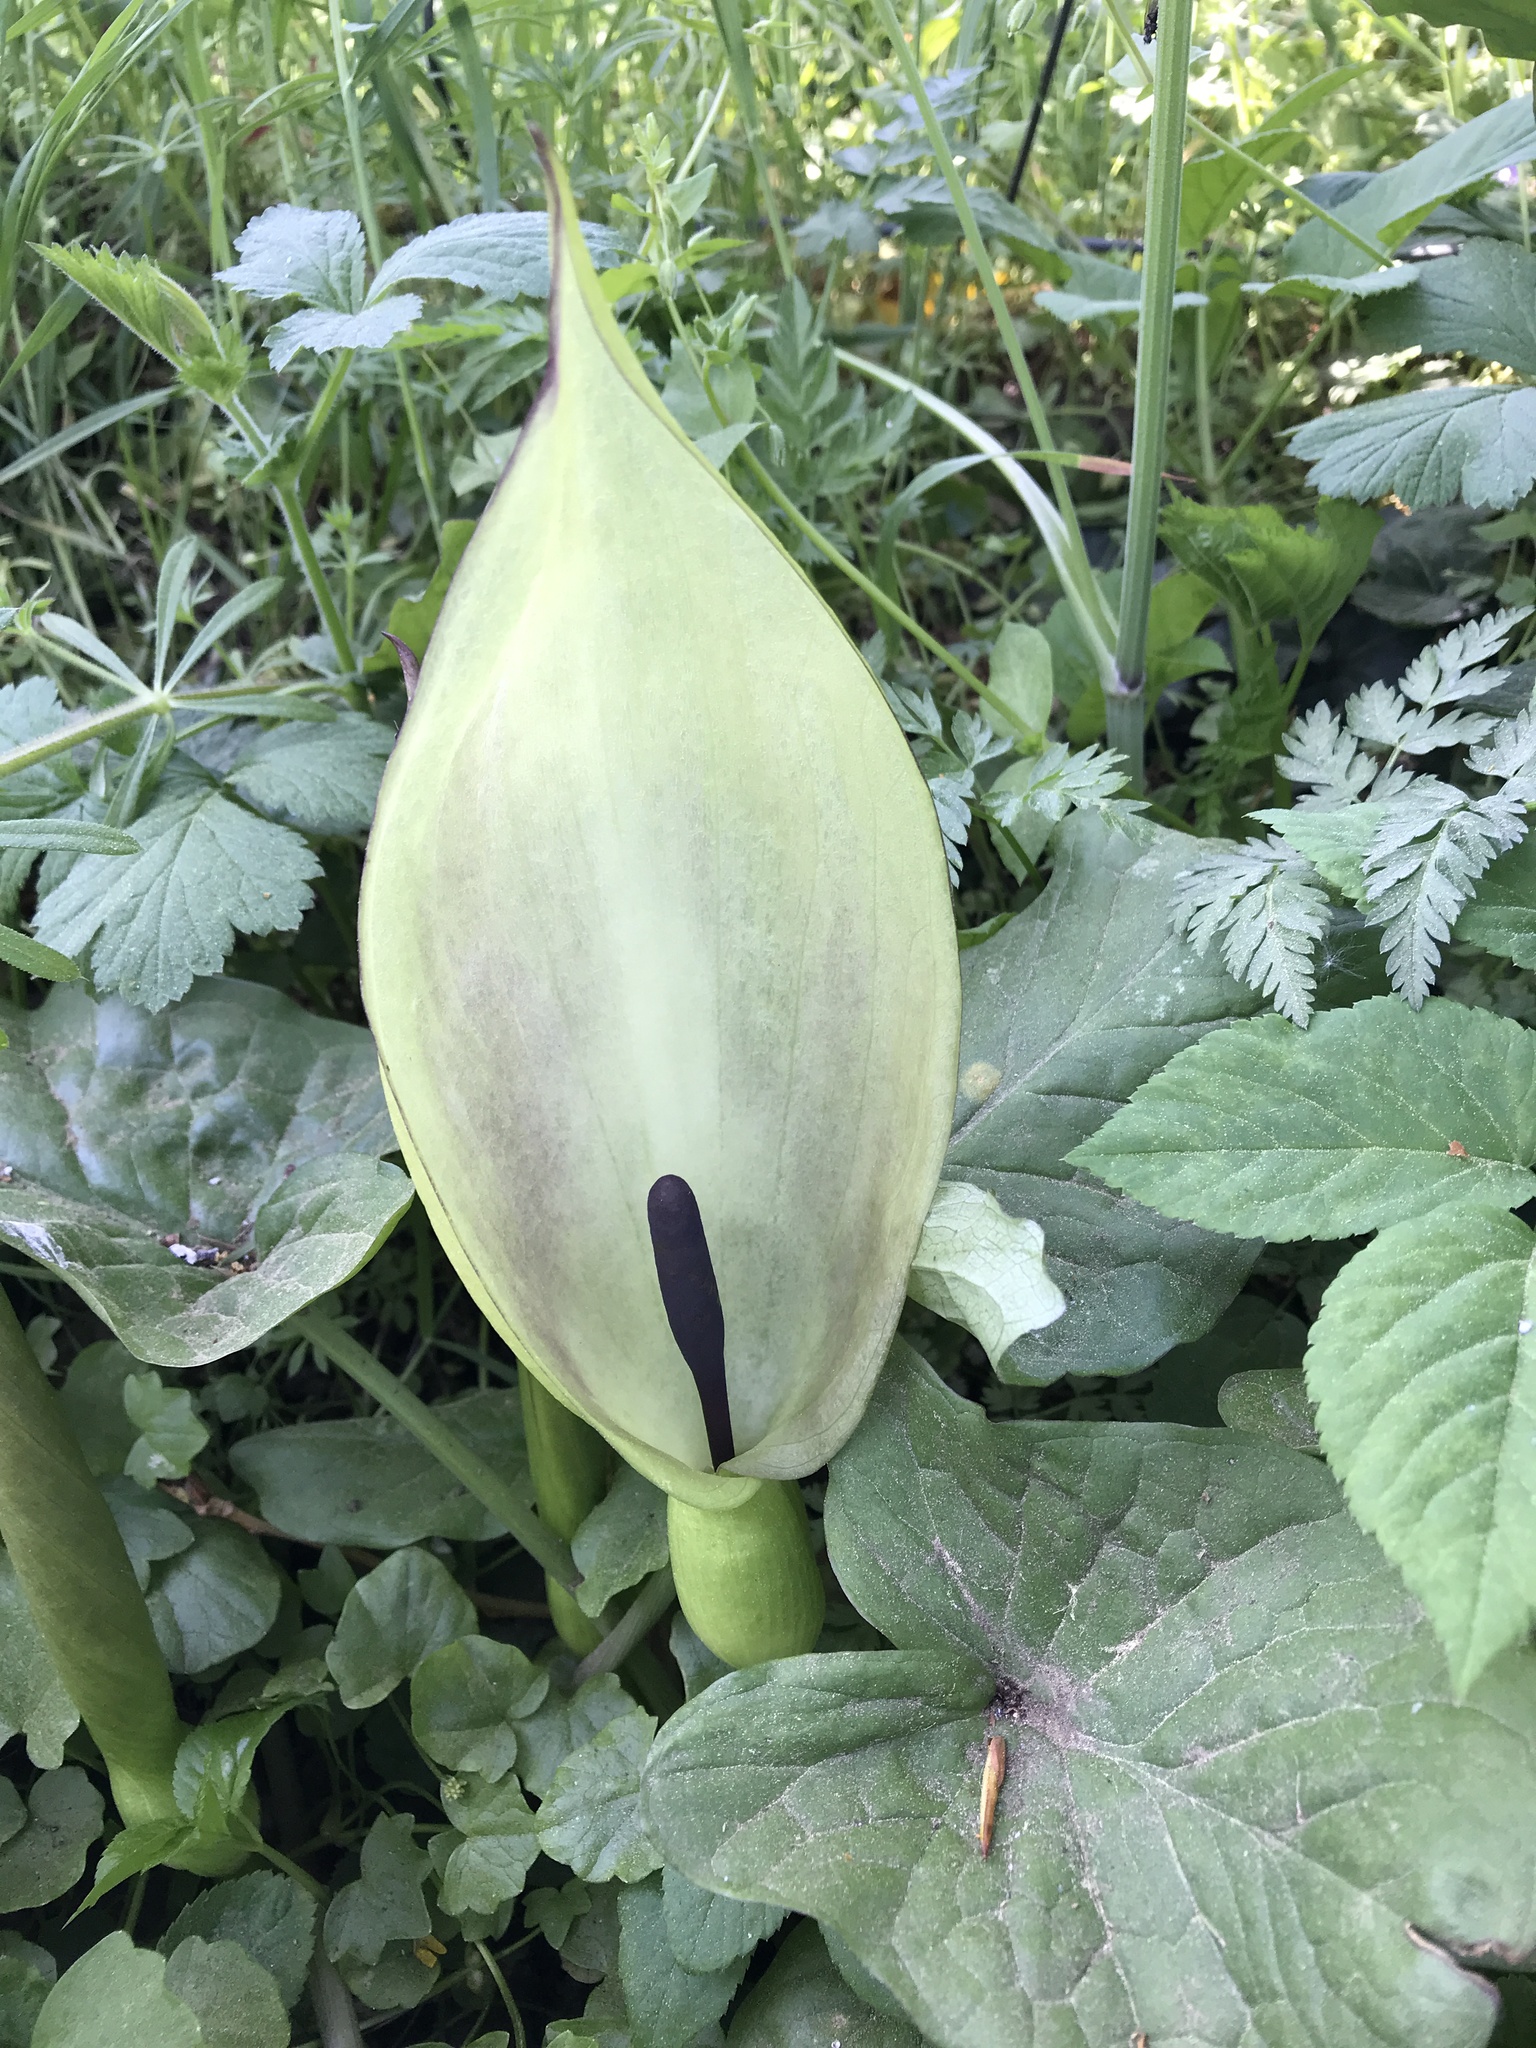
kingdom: Plantae
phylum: Tracheophyta
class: Liliopsida
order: Alismatales
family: Araceae
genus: Arum
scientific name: Arum maculatum
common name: Lords-and-ladies
